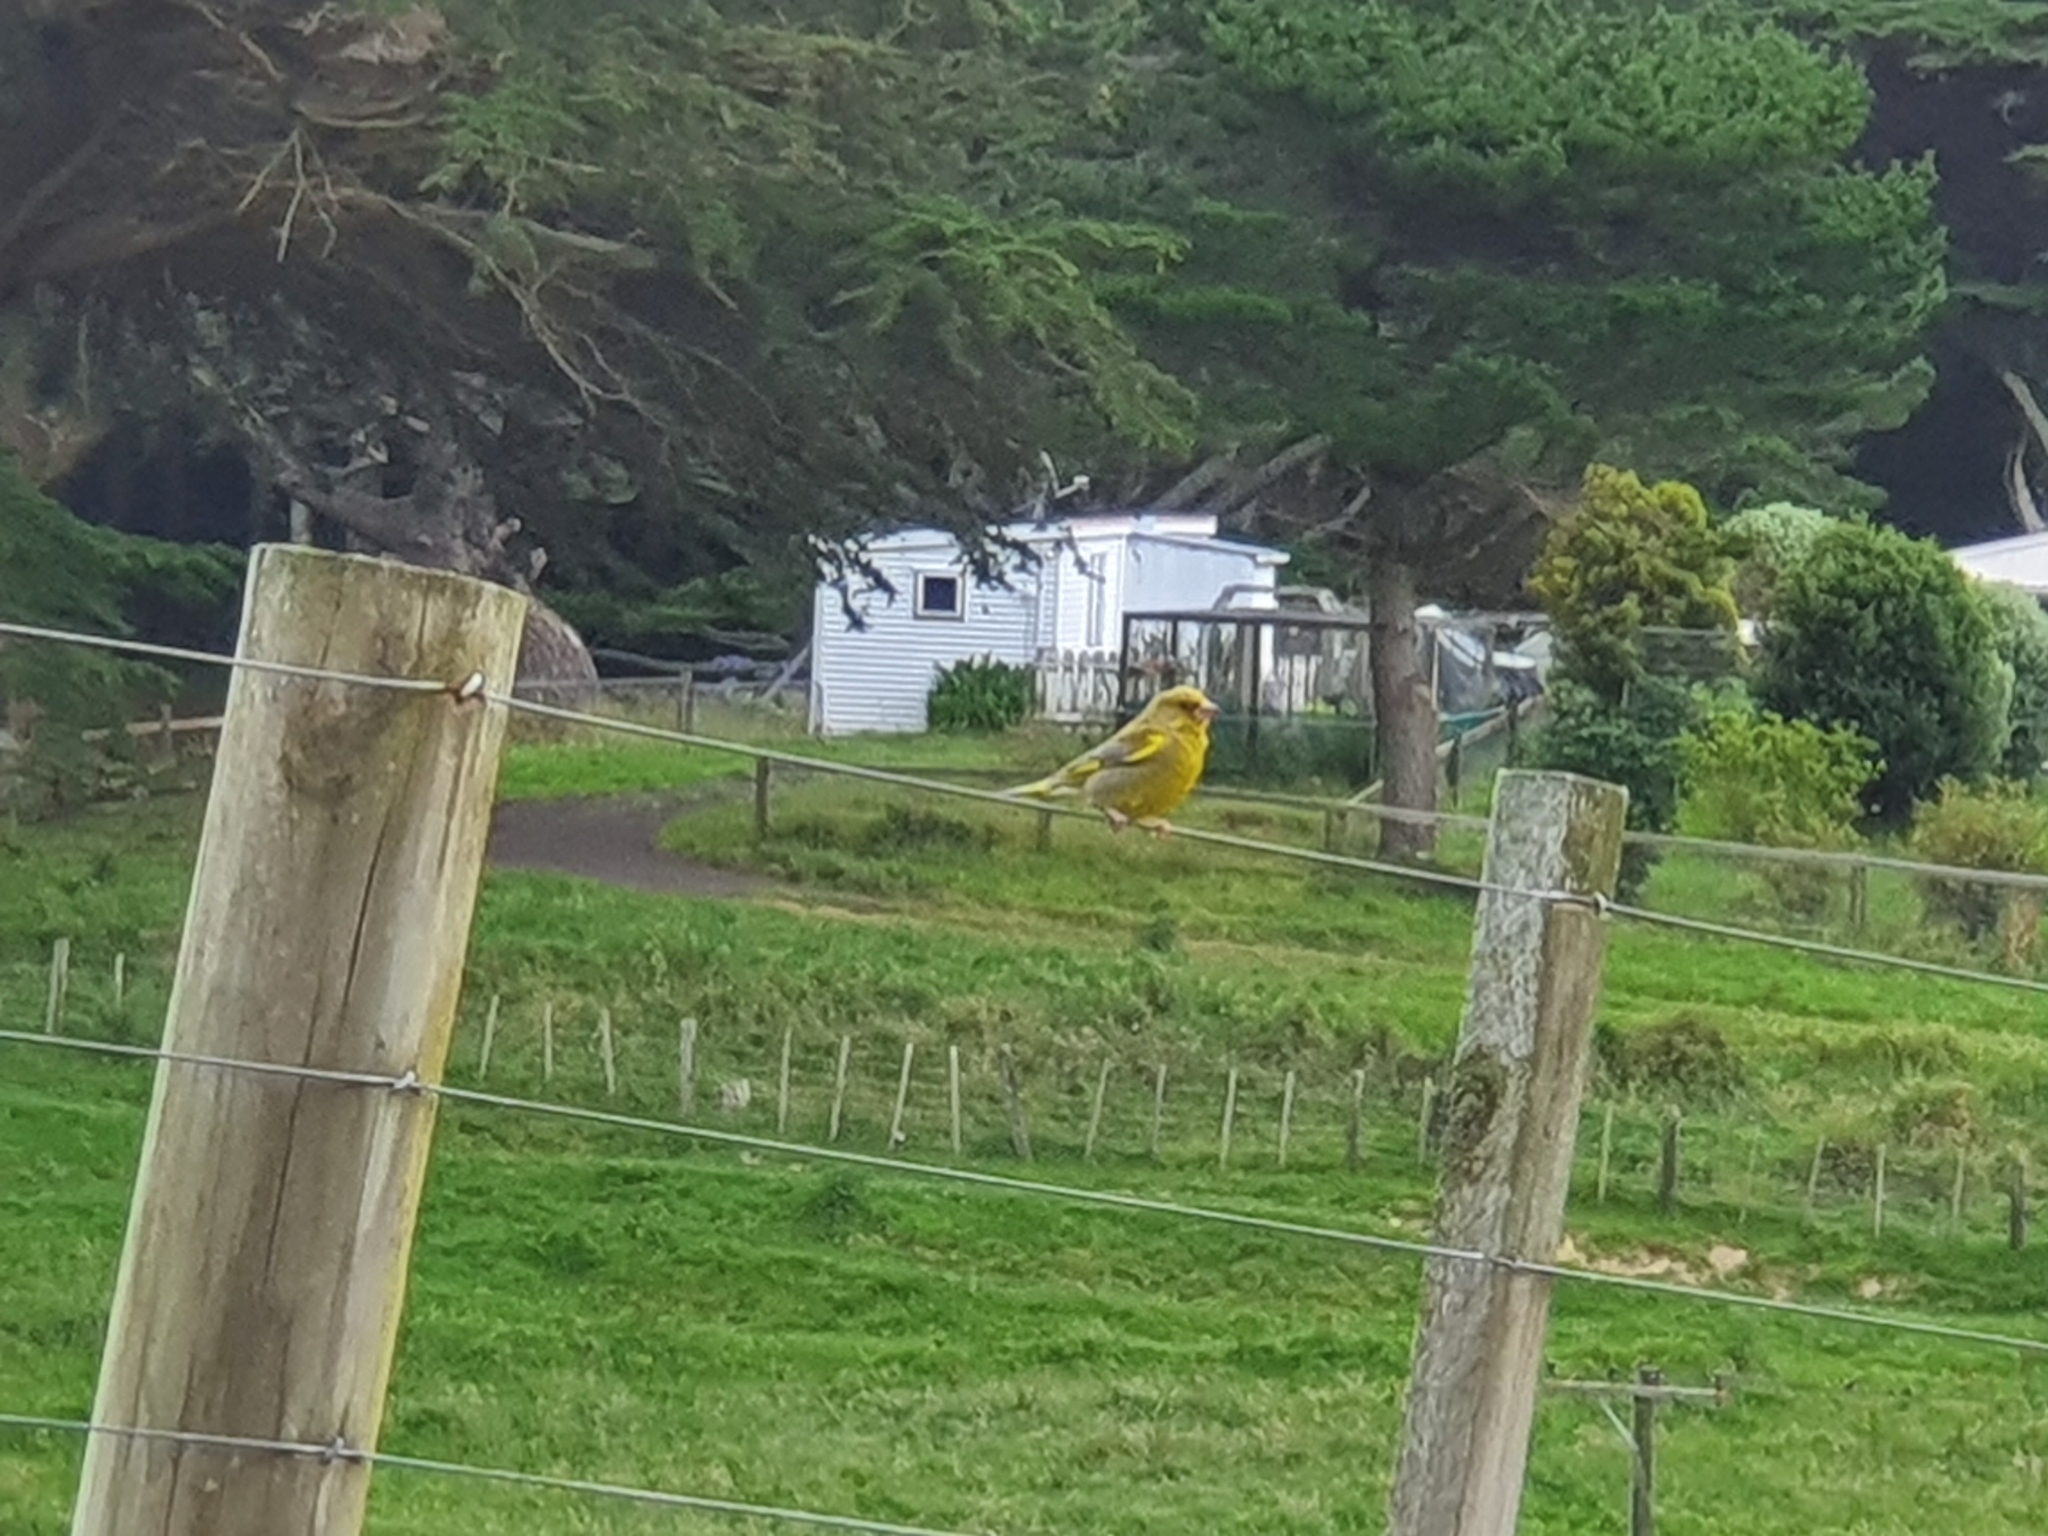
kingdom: Plantae
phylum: Tracheophyta
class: Liliopsida
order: Poales
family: Poaceae
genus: Chloris
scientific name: Chloris chloris
